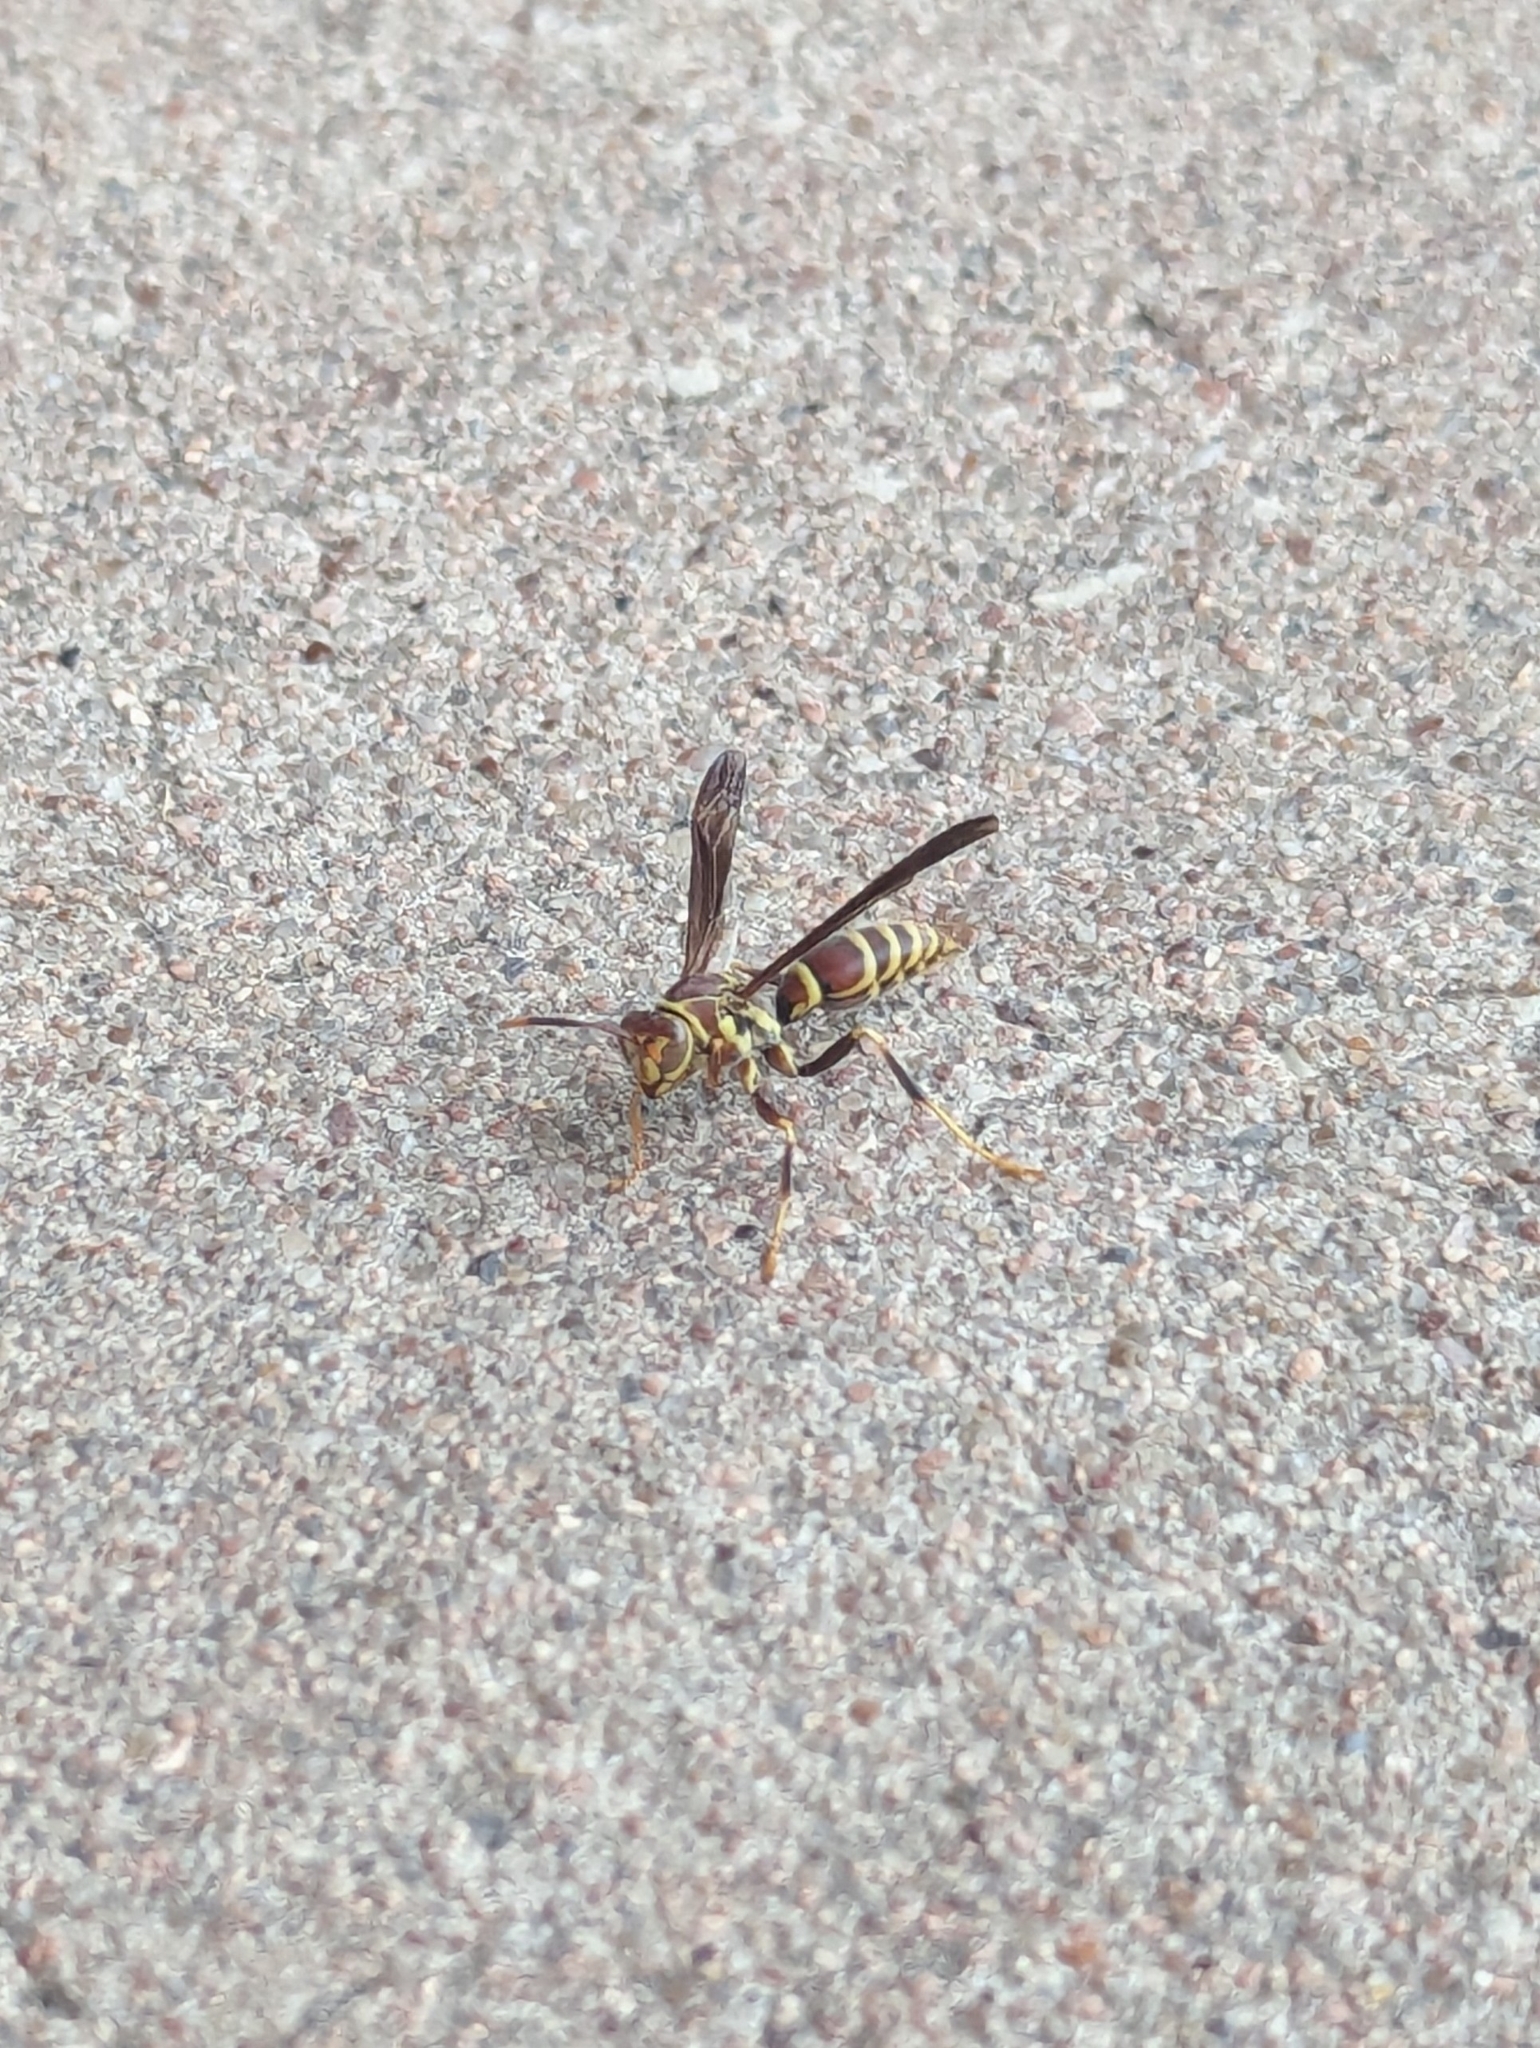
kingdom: Animalia
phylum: Arthropoda
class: Insecta
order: Hymenoptera
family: Eumenidae
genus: Polistes
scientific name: Polistes exclamans
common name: Paper wasp
